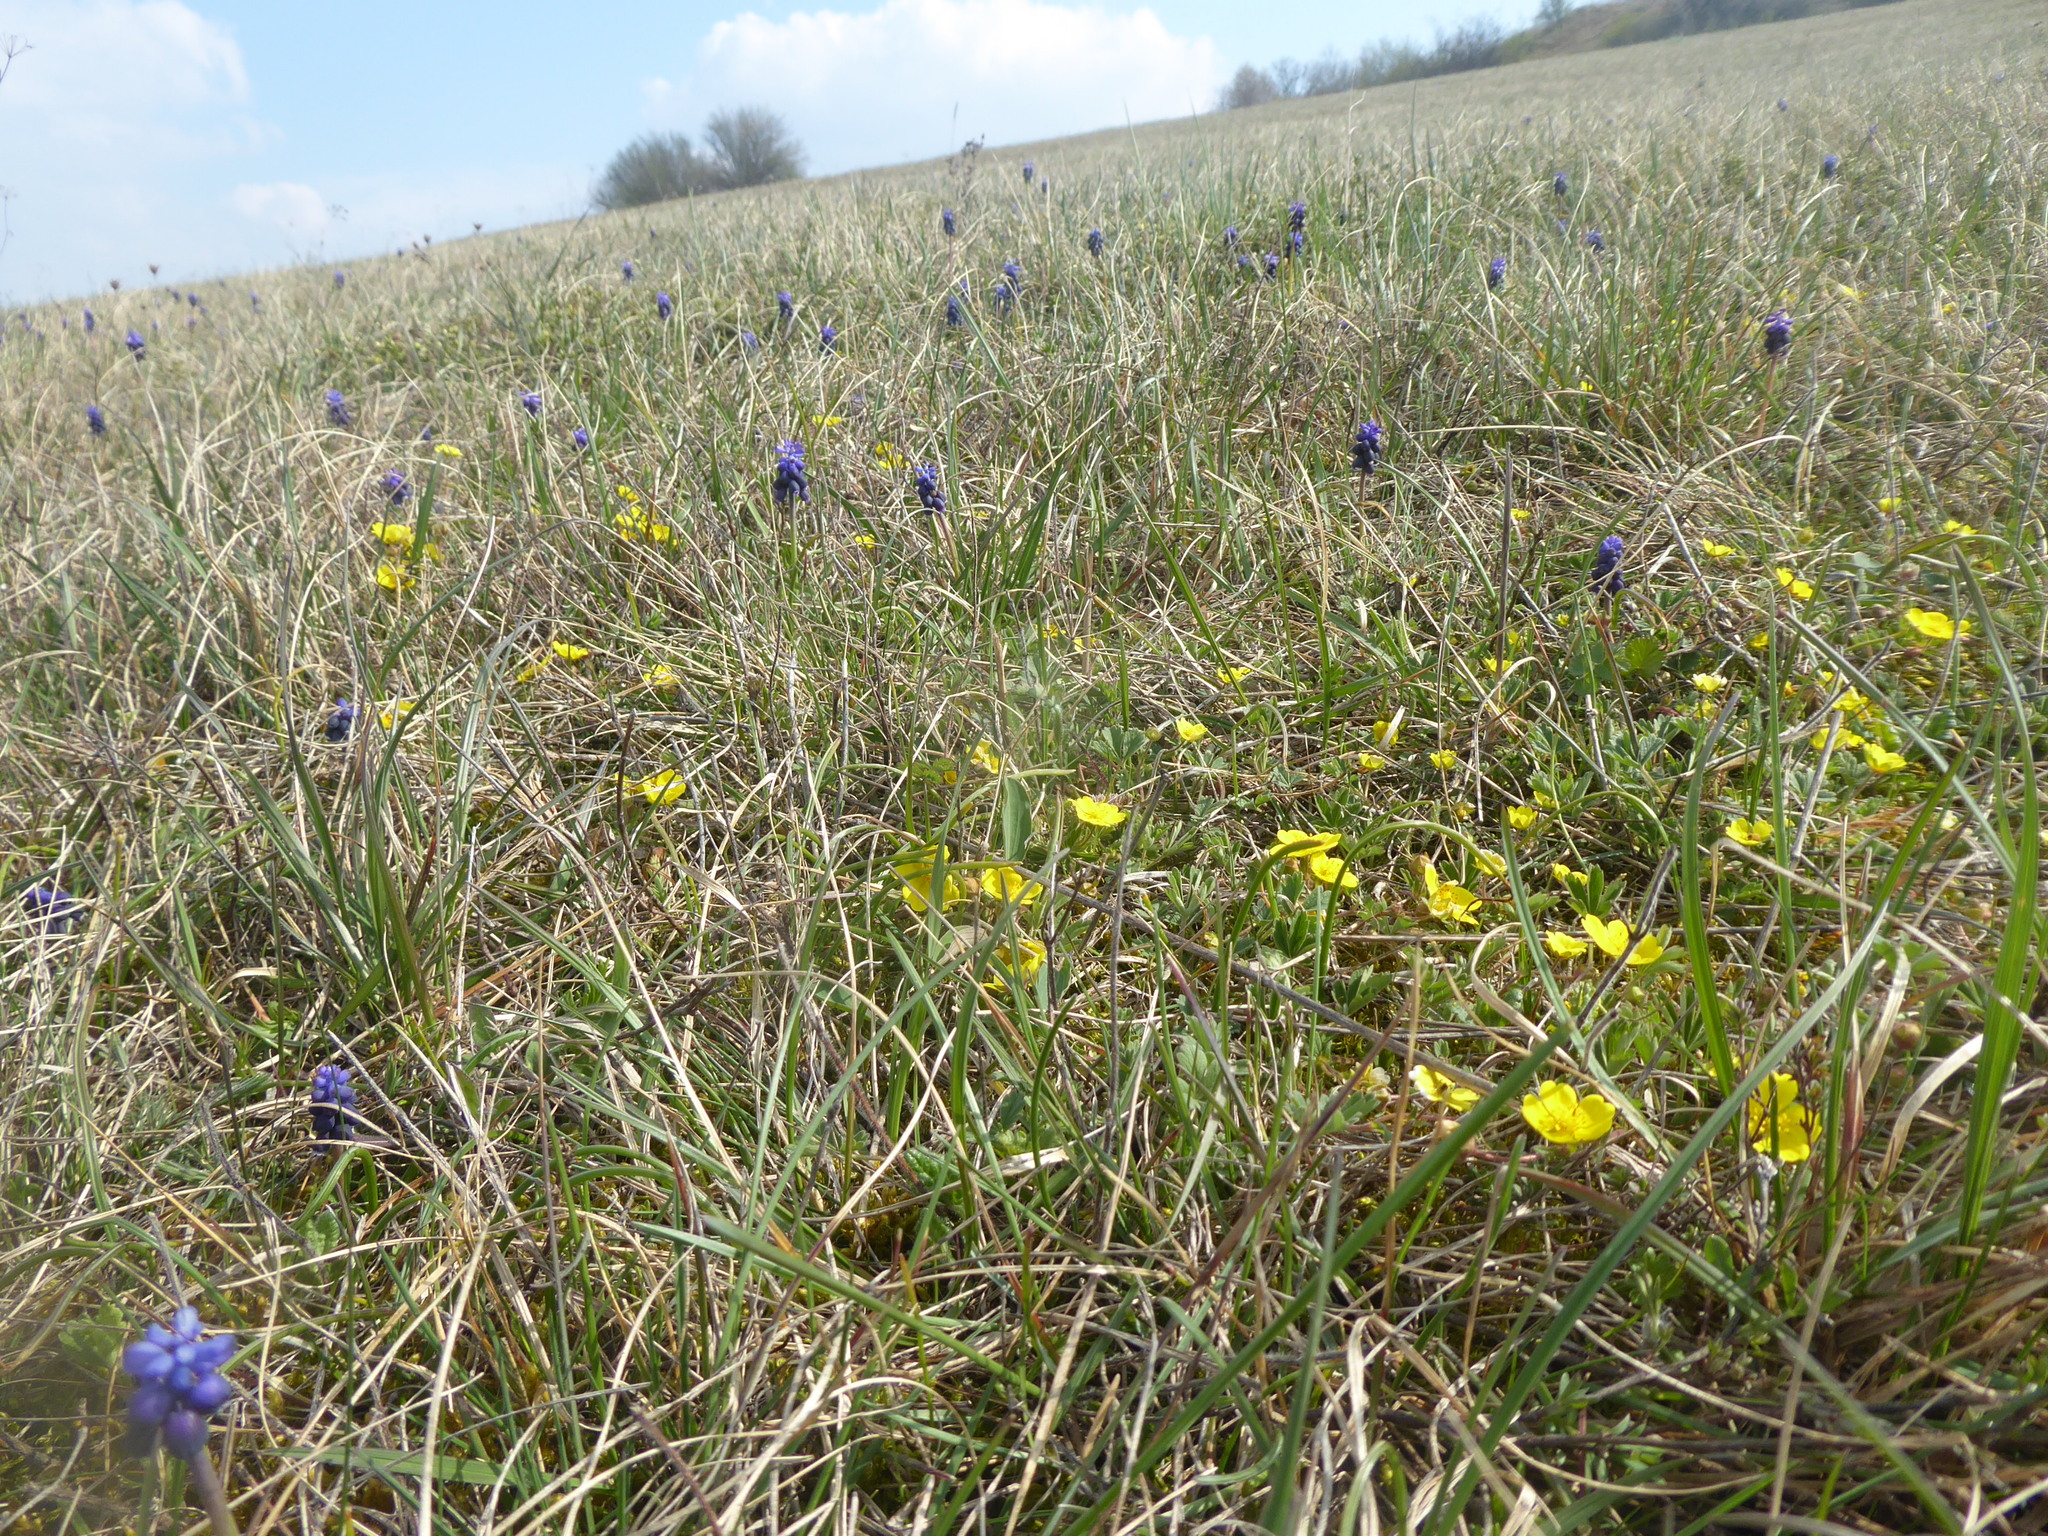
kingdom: Plantae
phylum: Tracheophyta
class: Magnoliopsida
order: Rosales
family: Rosaceae
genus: Potentilla
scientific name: Potentilla incana
